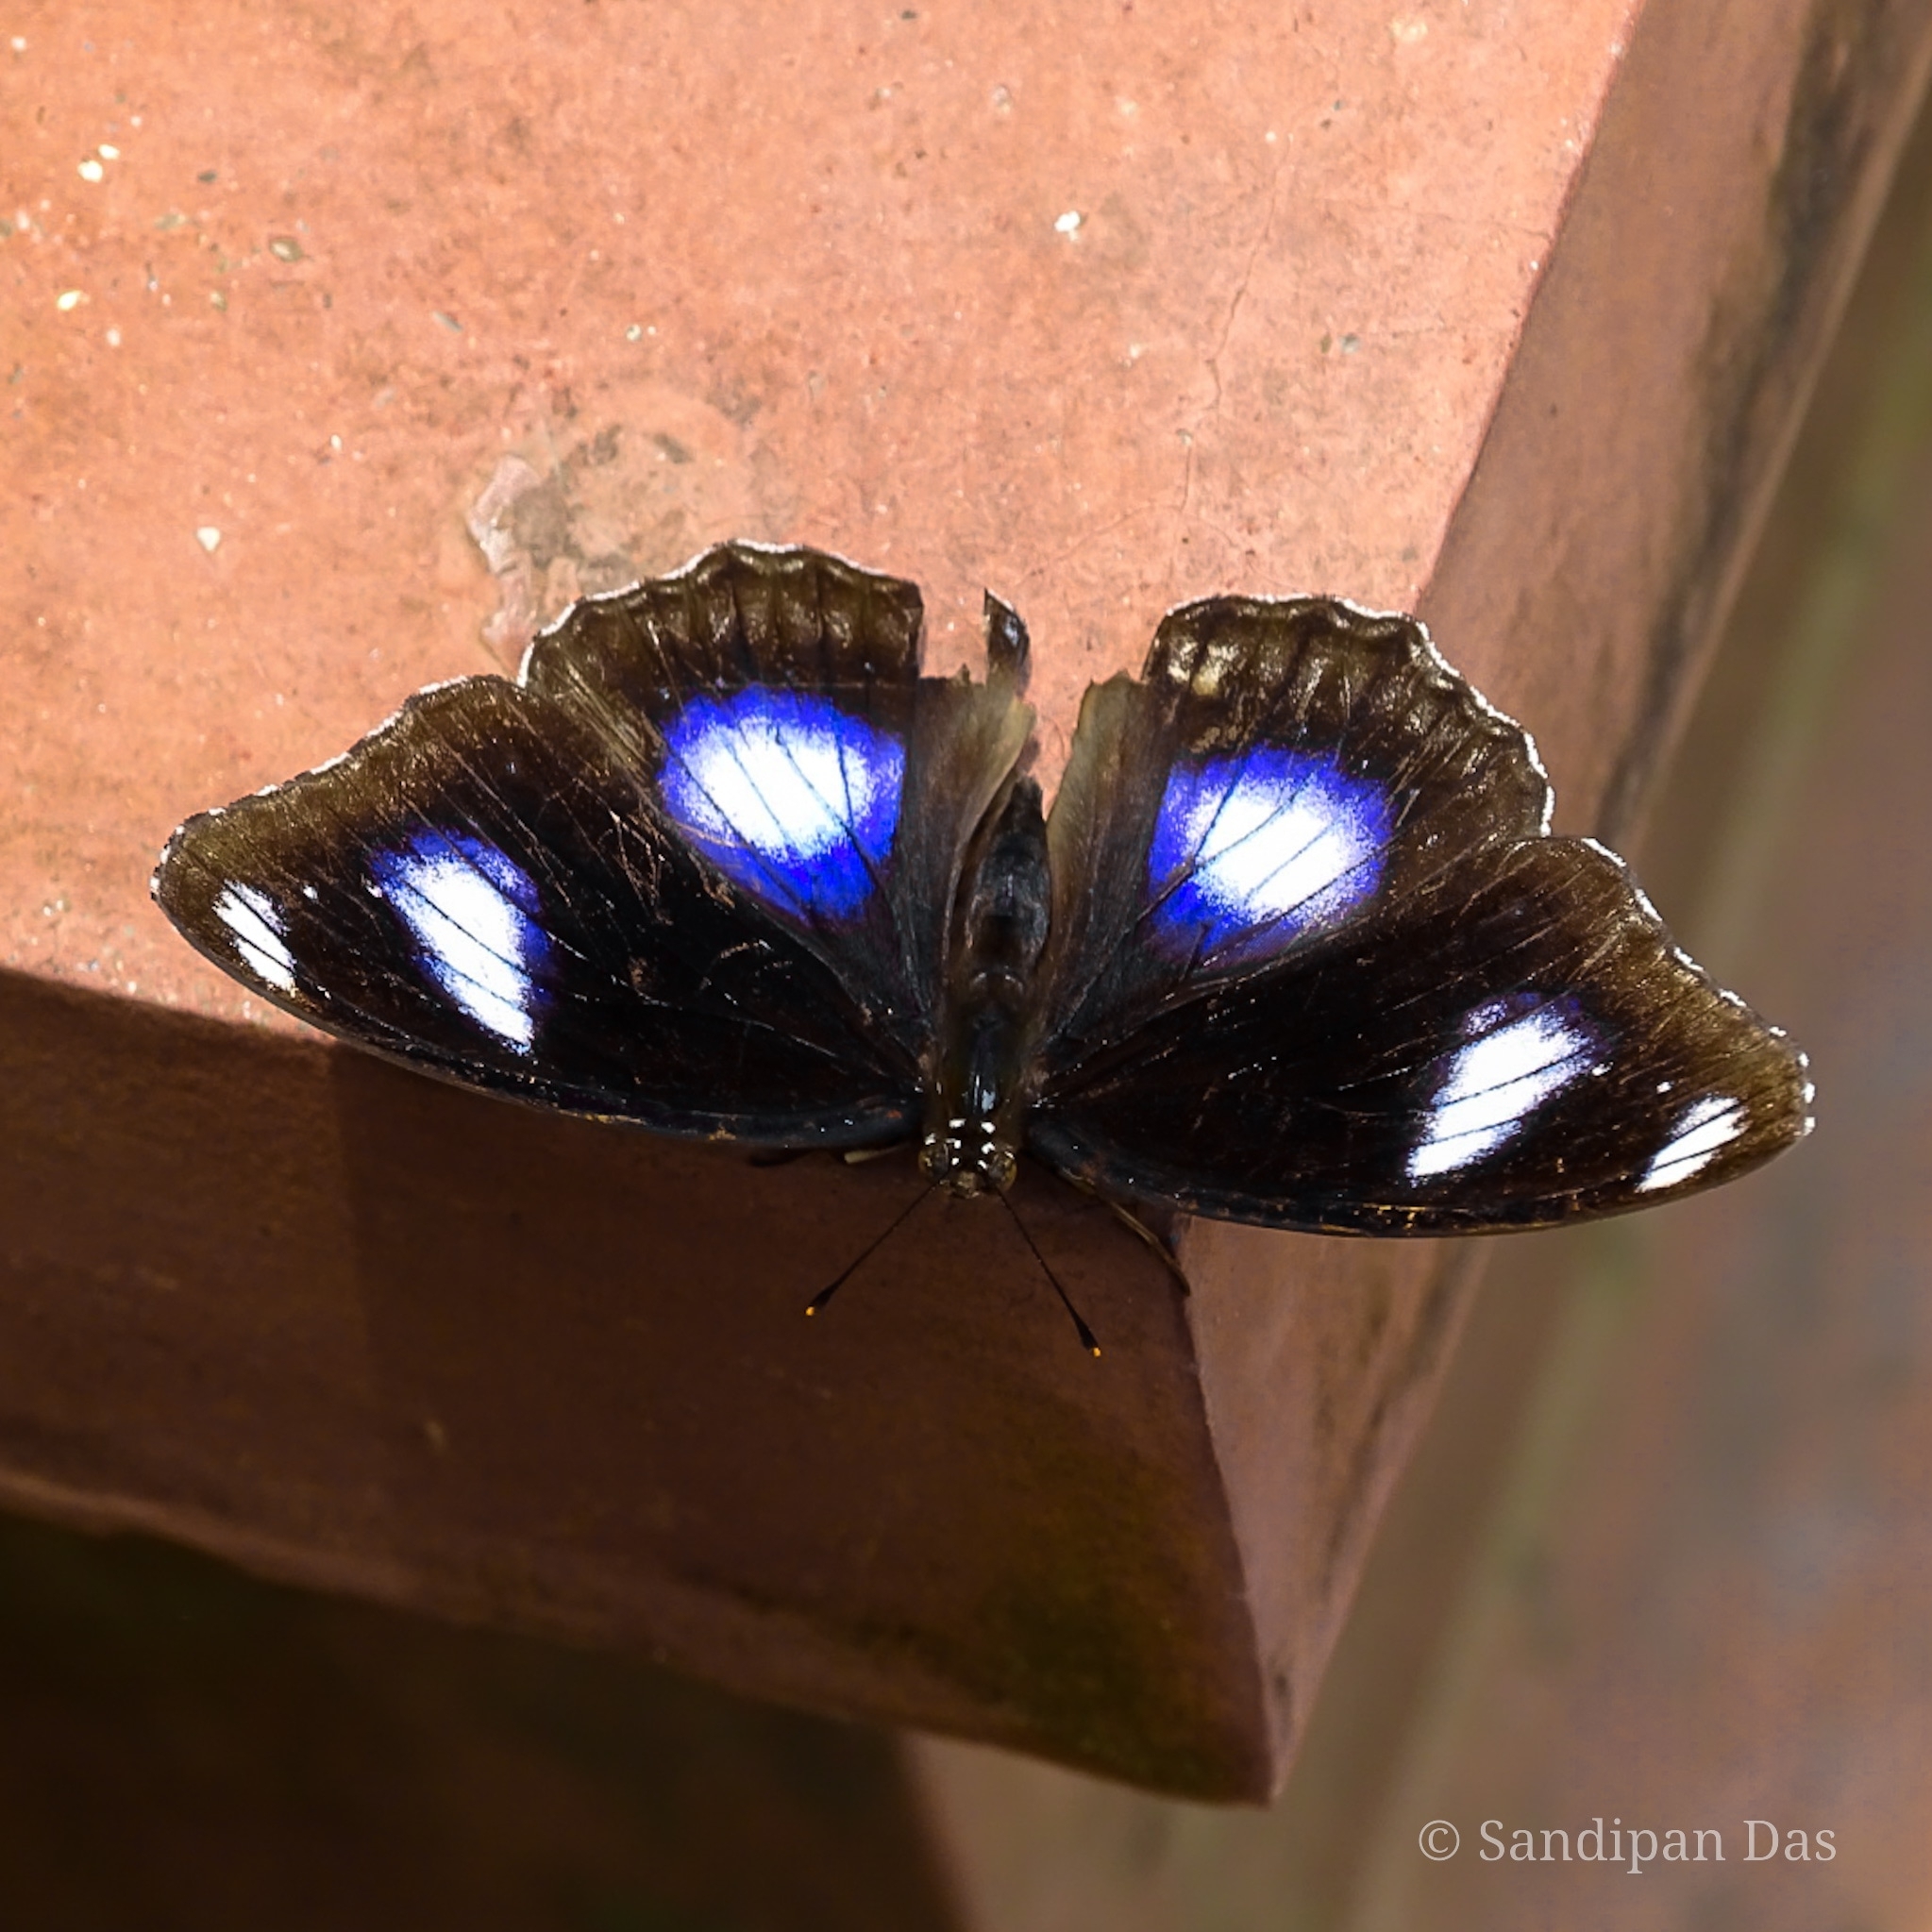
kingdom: Animalia
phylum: Arthropoda
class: Insecta
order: Lepidoptera
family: Nymphalidae
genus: Hypolimnas
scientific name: Hypolimnas bolina
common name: Great eggfly
